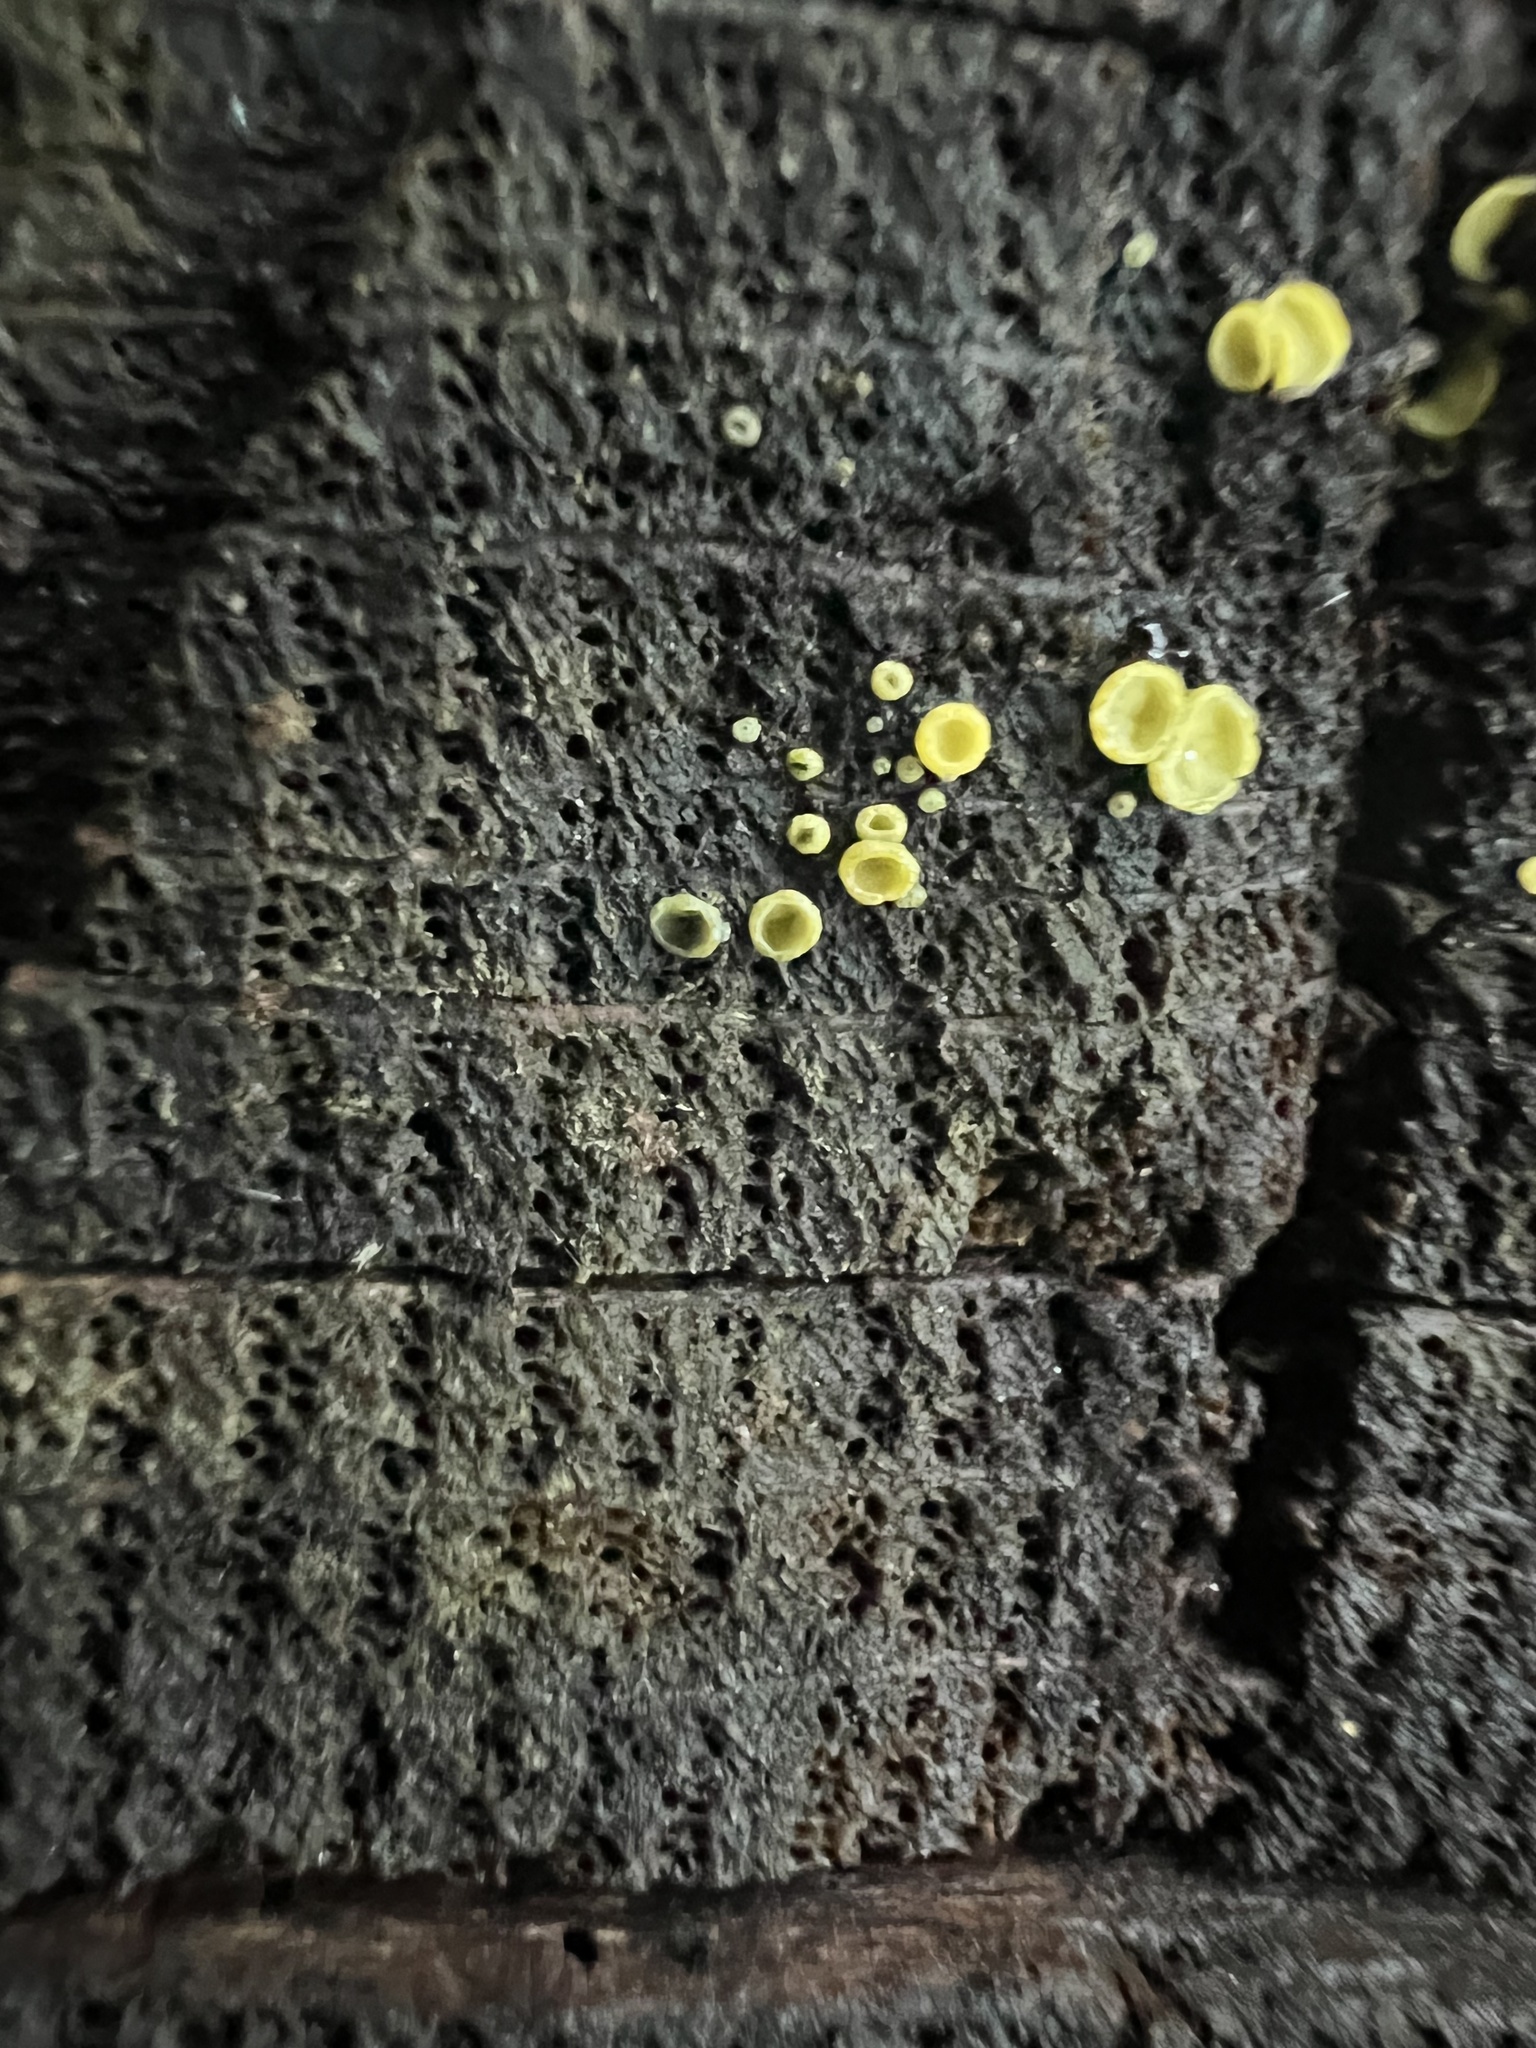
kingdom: Fungi
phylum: Ascomycota
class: Leotiomycetes
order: Helotiales
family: Chlorospleniaceae
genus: Chlorosplenium
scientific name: Chlorosplenium chlora
